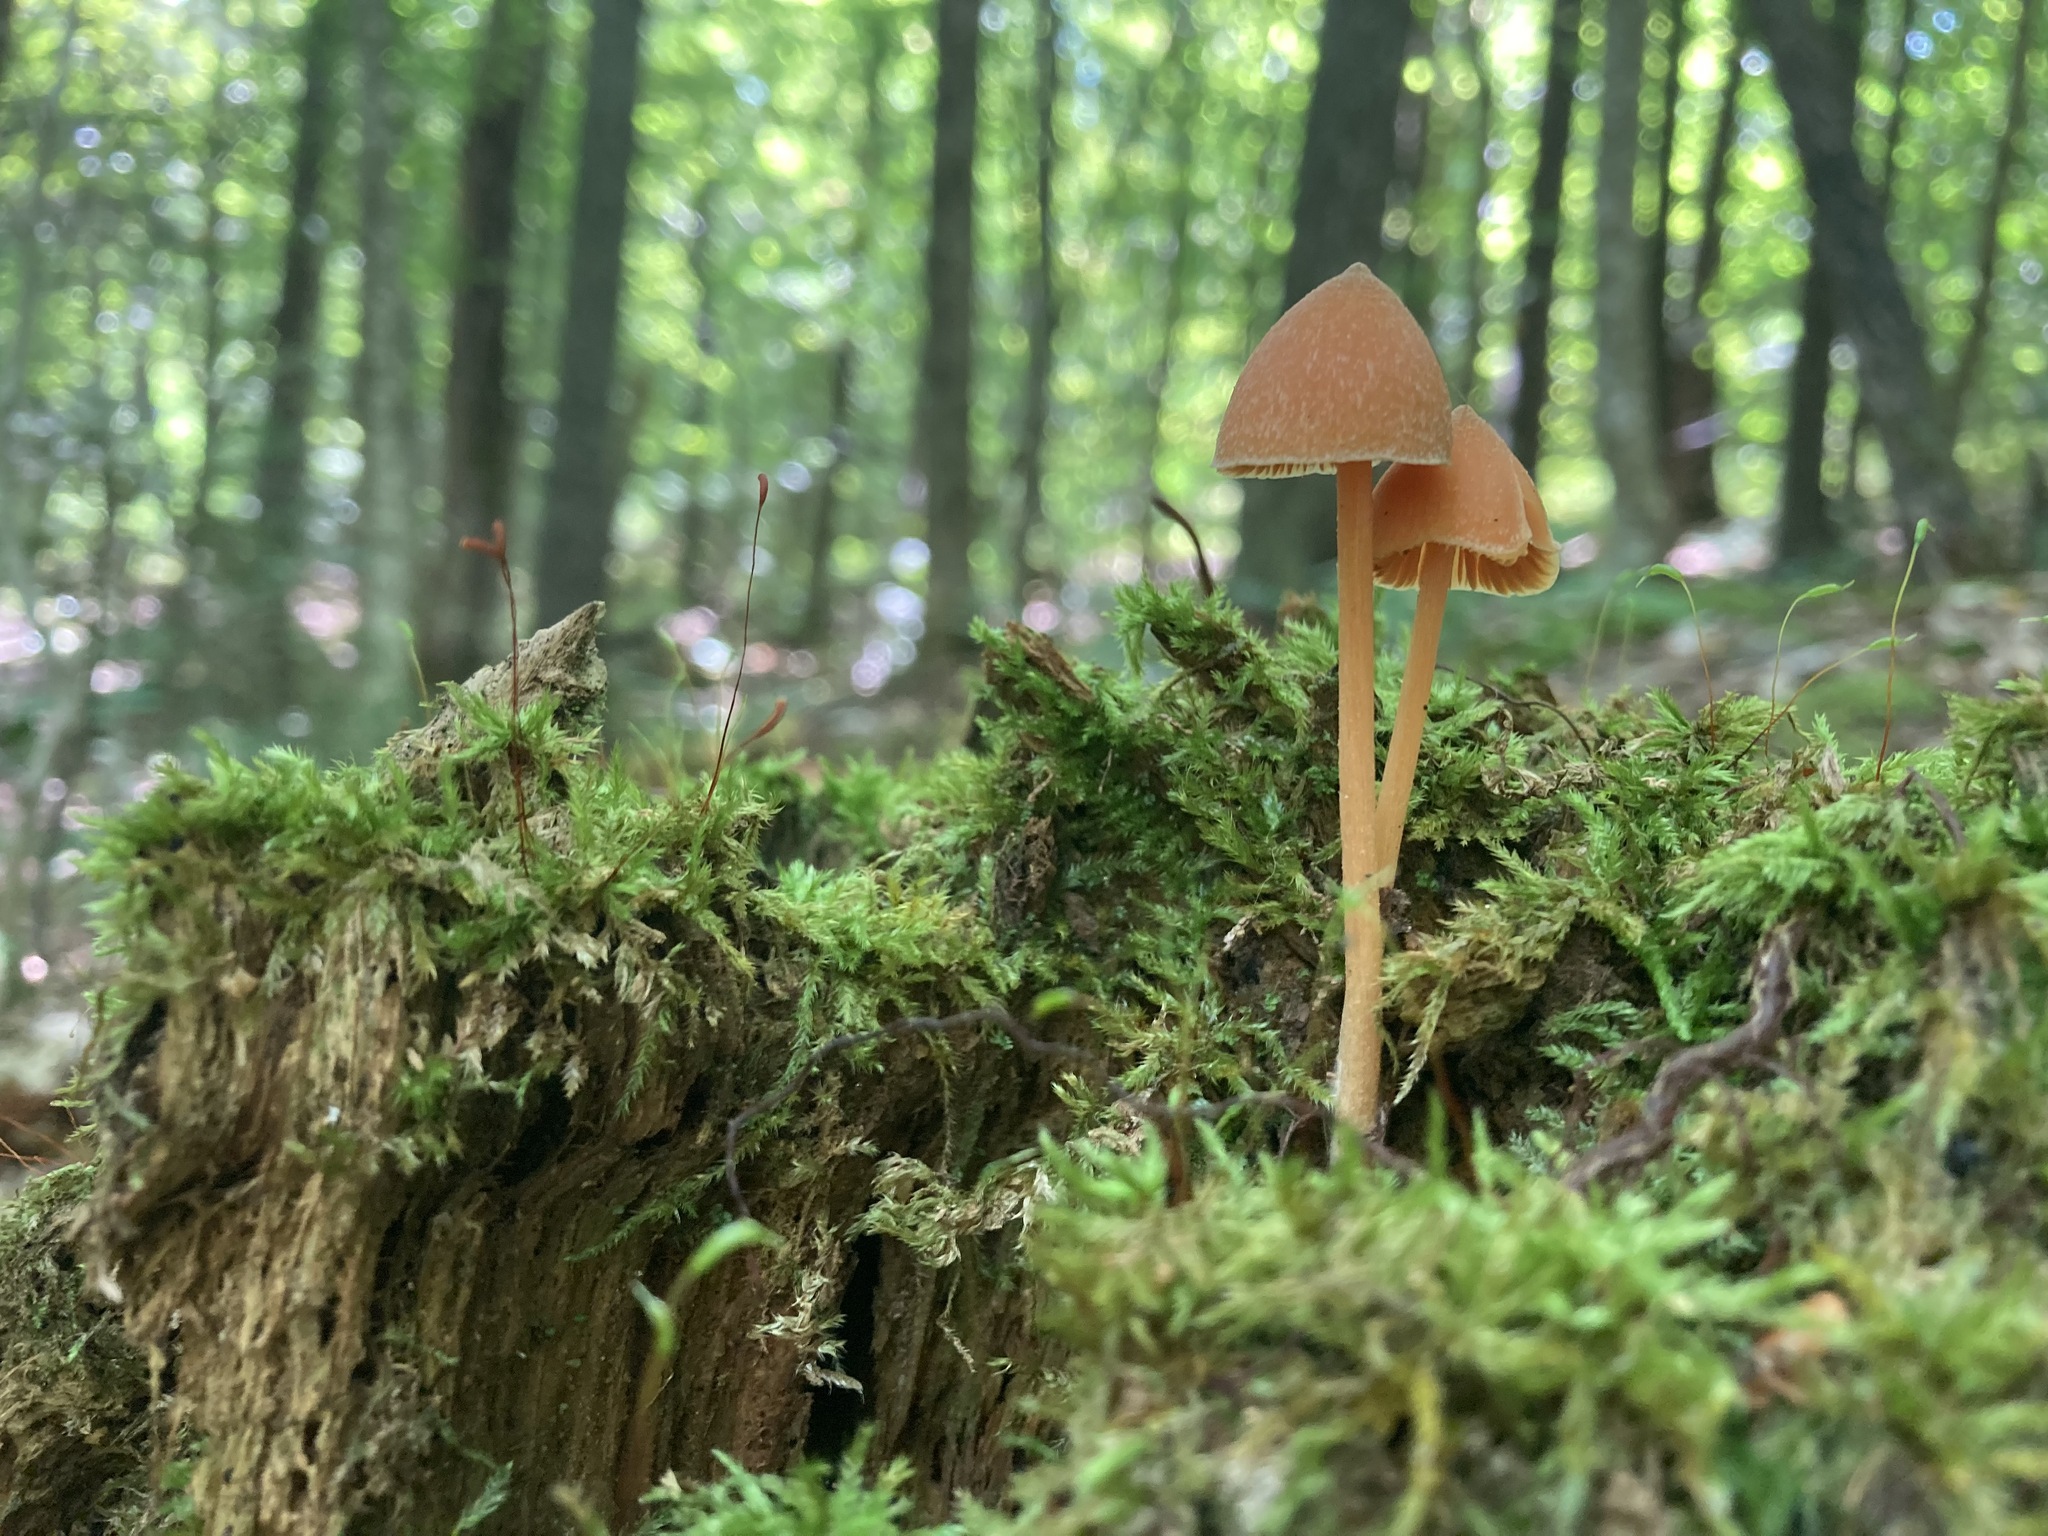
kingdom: Fungi
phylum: Basidiomycota
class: Agaricomycetes
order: Agaricales
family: Entolomataceae
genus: Entoloma
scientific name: Entoloma quadratum
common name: Salmon pinkgill
